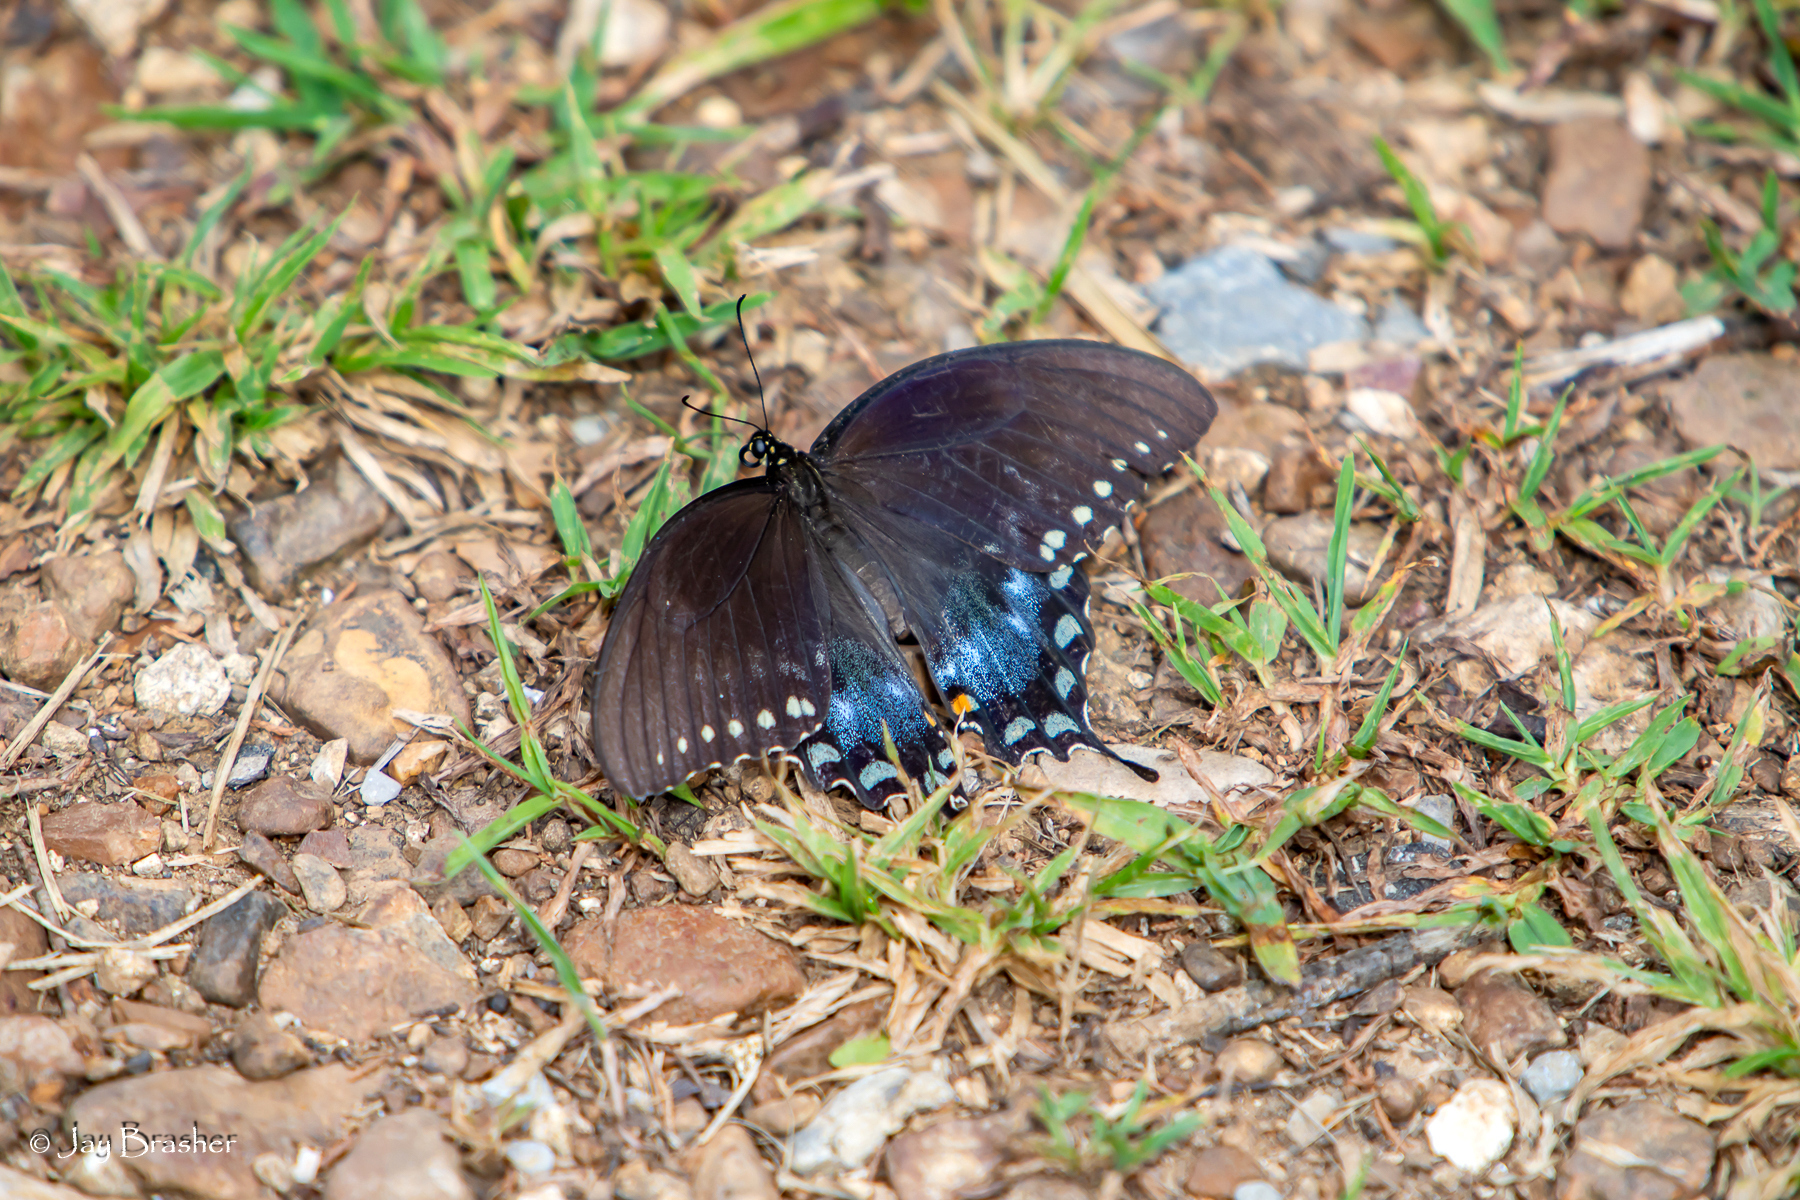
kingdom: Animalia
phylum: Arthropoda
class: Insecta
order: Lepidoptera
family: Papilionidae
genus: Papilio
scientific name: Papilio troilus
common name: Spicebush swallowtail
